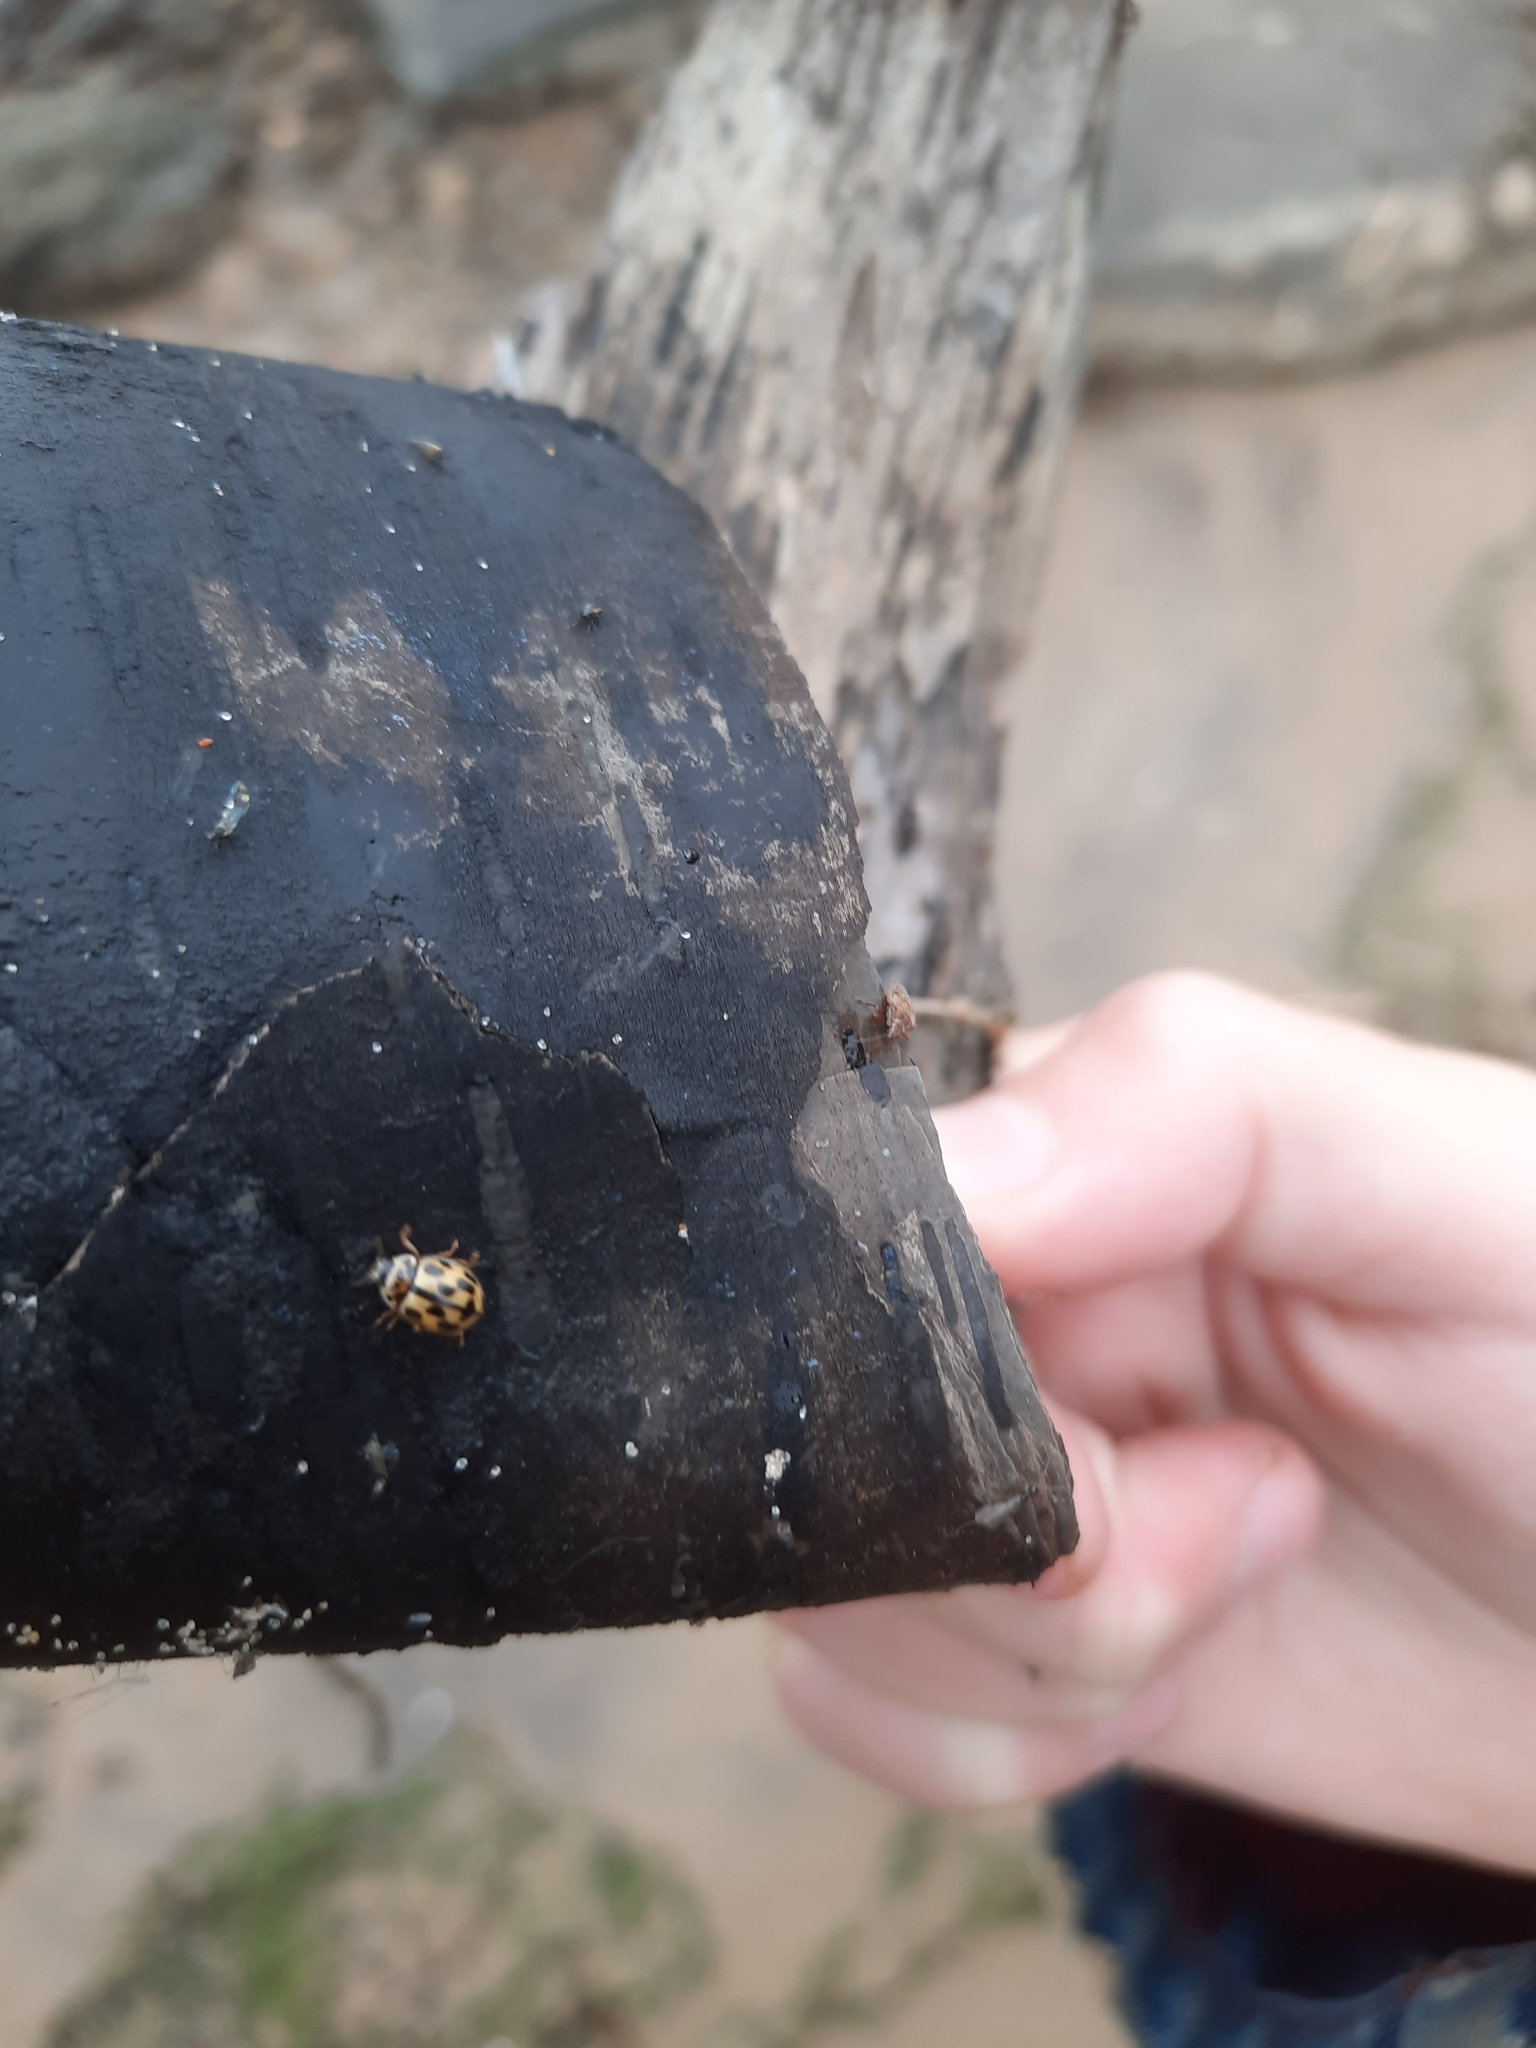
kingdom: Animalia
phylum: Arthropoda
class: Insecta
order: Coleoptera
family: Coccinellidae
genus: Propylaea
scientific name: Propylaea quatuordecimpunctata
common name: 14-spotted ladybird beetle
